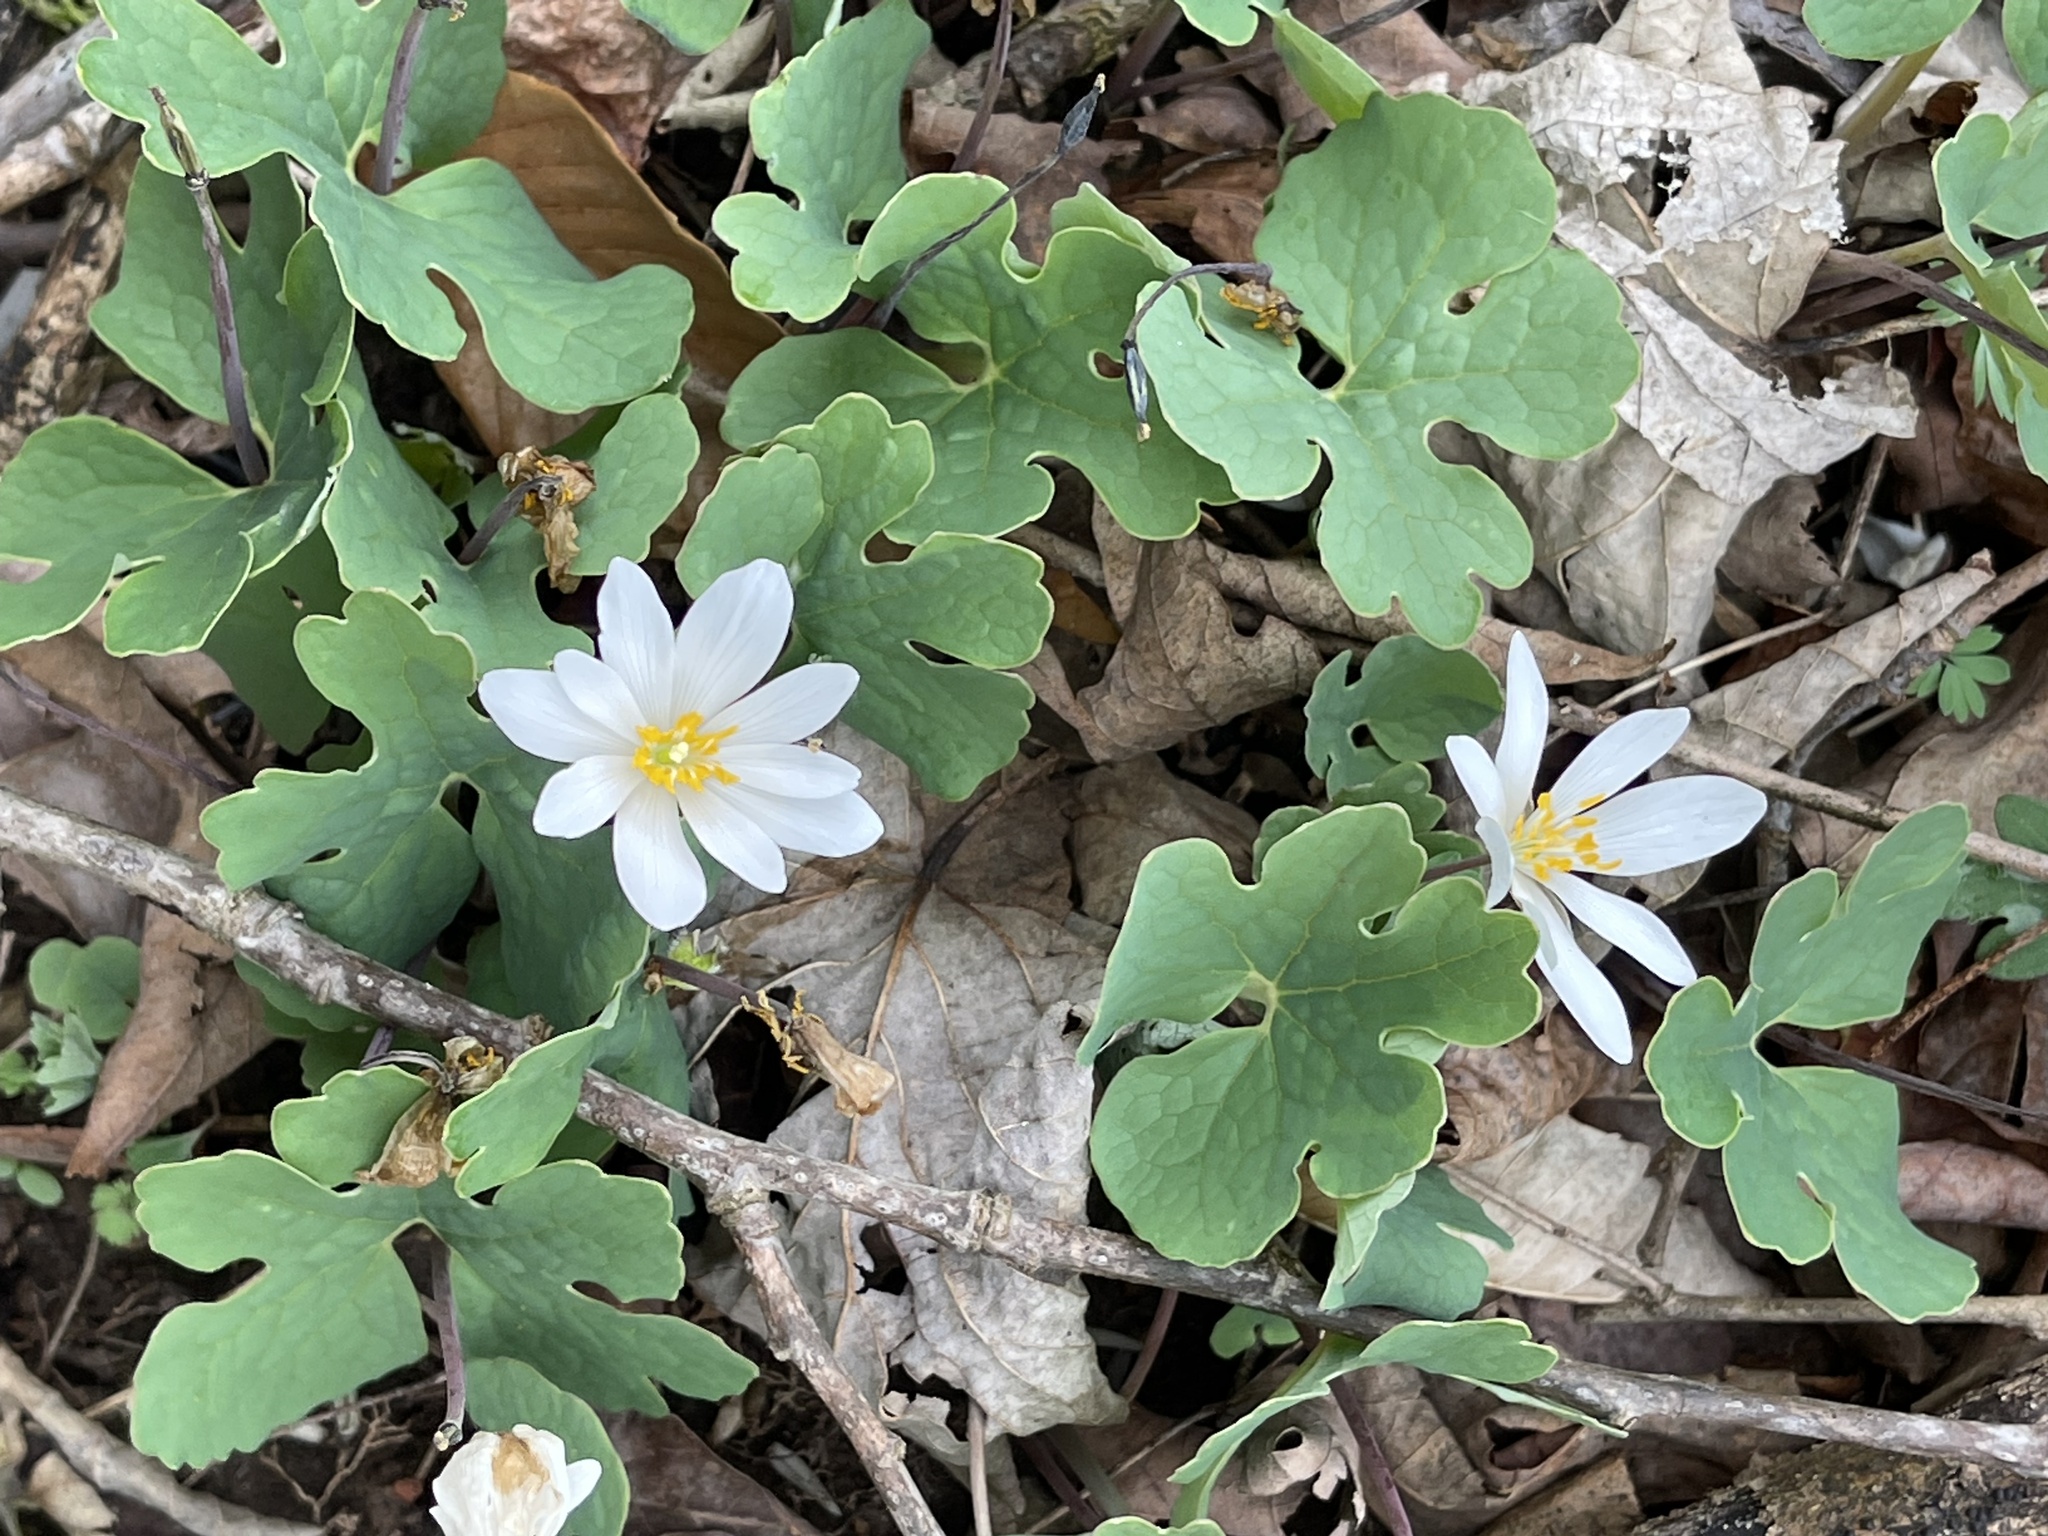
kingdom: Plantae
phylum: Tracheophyta
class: Magnoliopsida
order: Ranunculales
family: Papaveraceae
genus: Sanguinaria
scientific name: Sanguinaria canadensis
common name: Bloodroot
